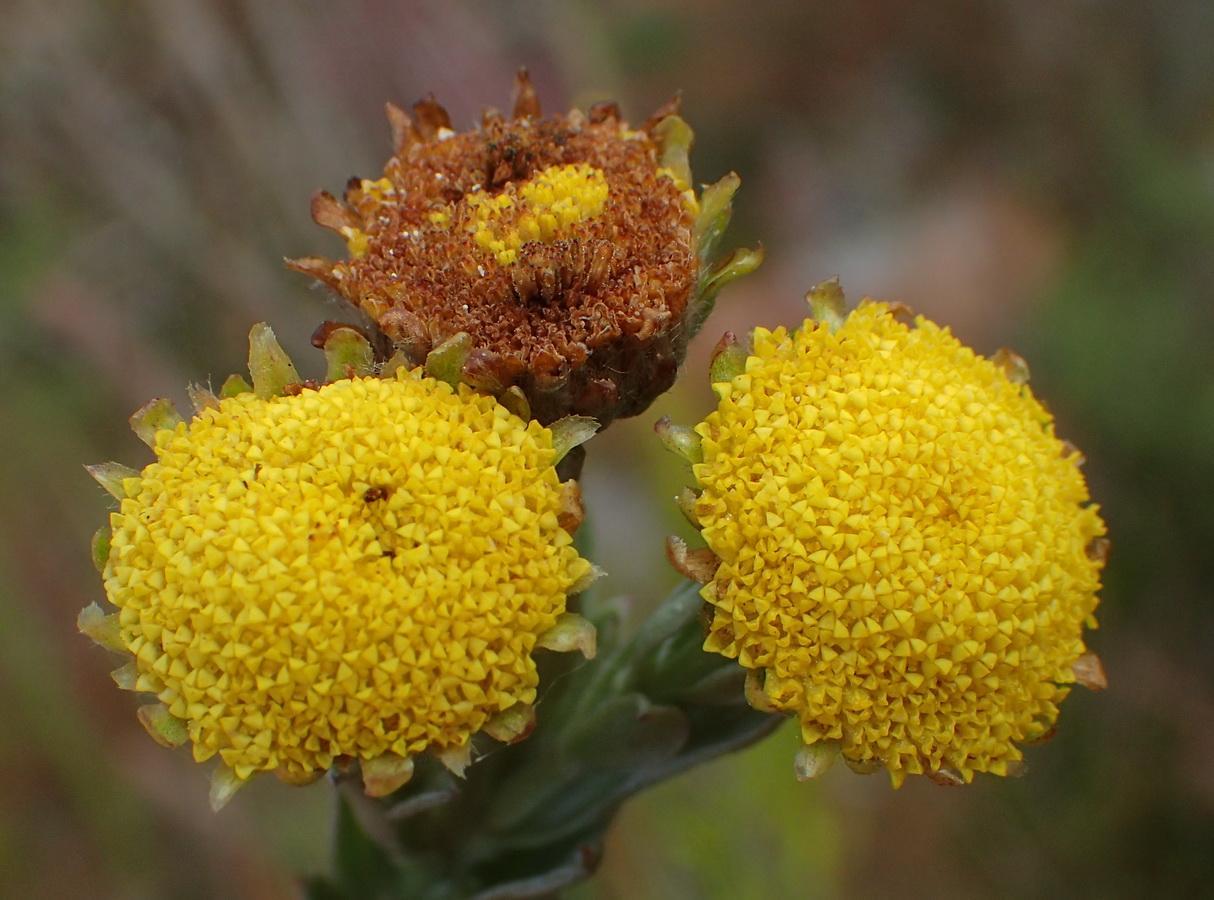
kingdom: Plantae
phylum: Tracheophyta
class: Magnoliopsida
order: Asterales
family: Asteraceae
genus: Schistostephium
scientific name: Schistostephium umbellatum
